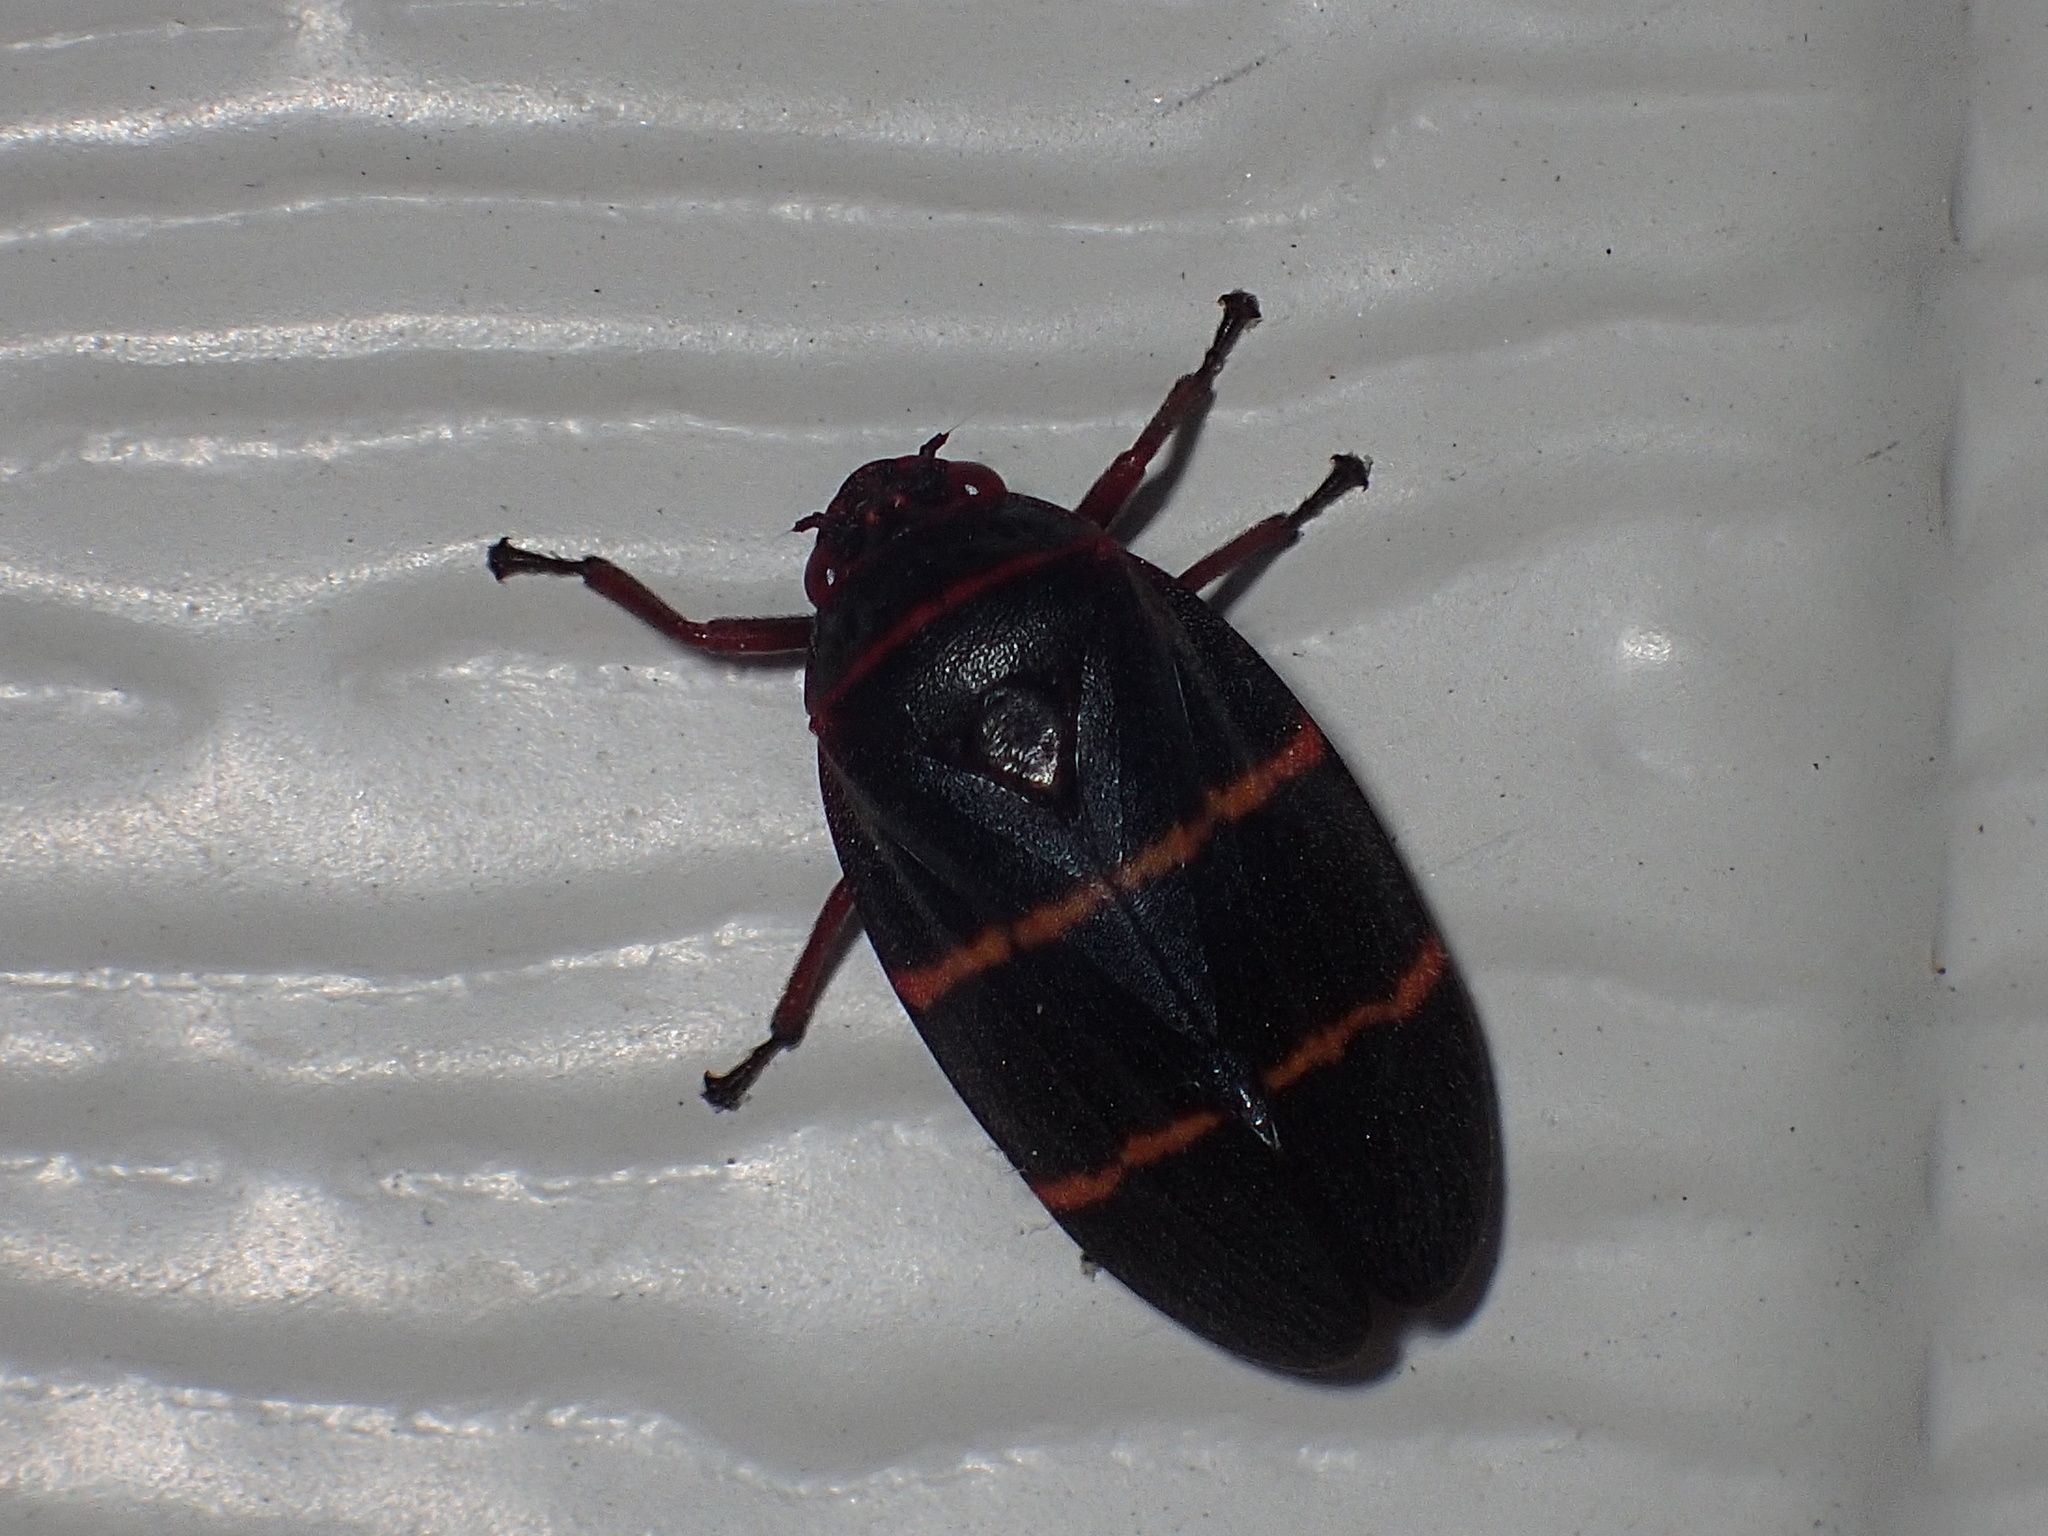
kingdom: Animalia
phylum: Arthropoda
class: Insecta
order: Hemiptera
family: Cercopidae
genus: Prosapia
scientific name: Prosapia bicincta
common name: Twolined spittlebug
